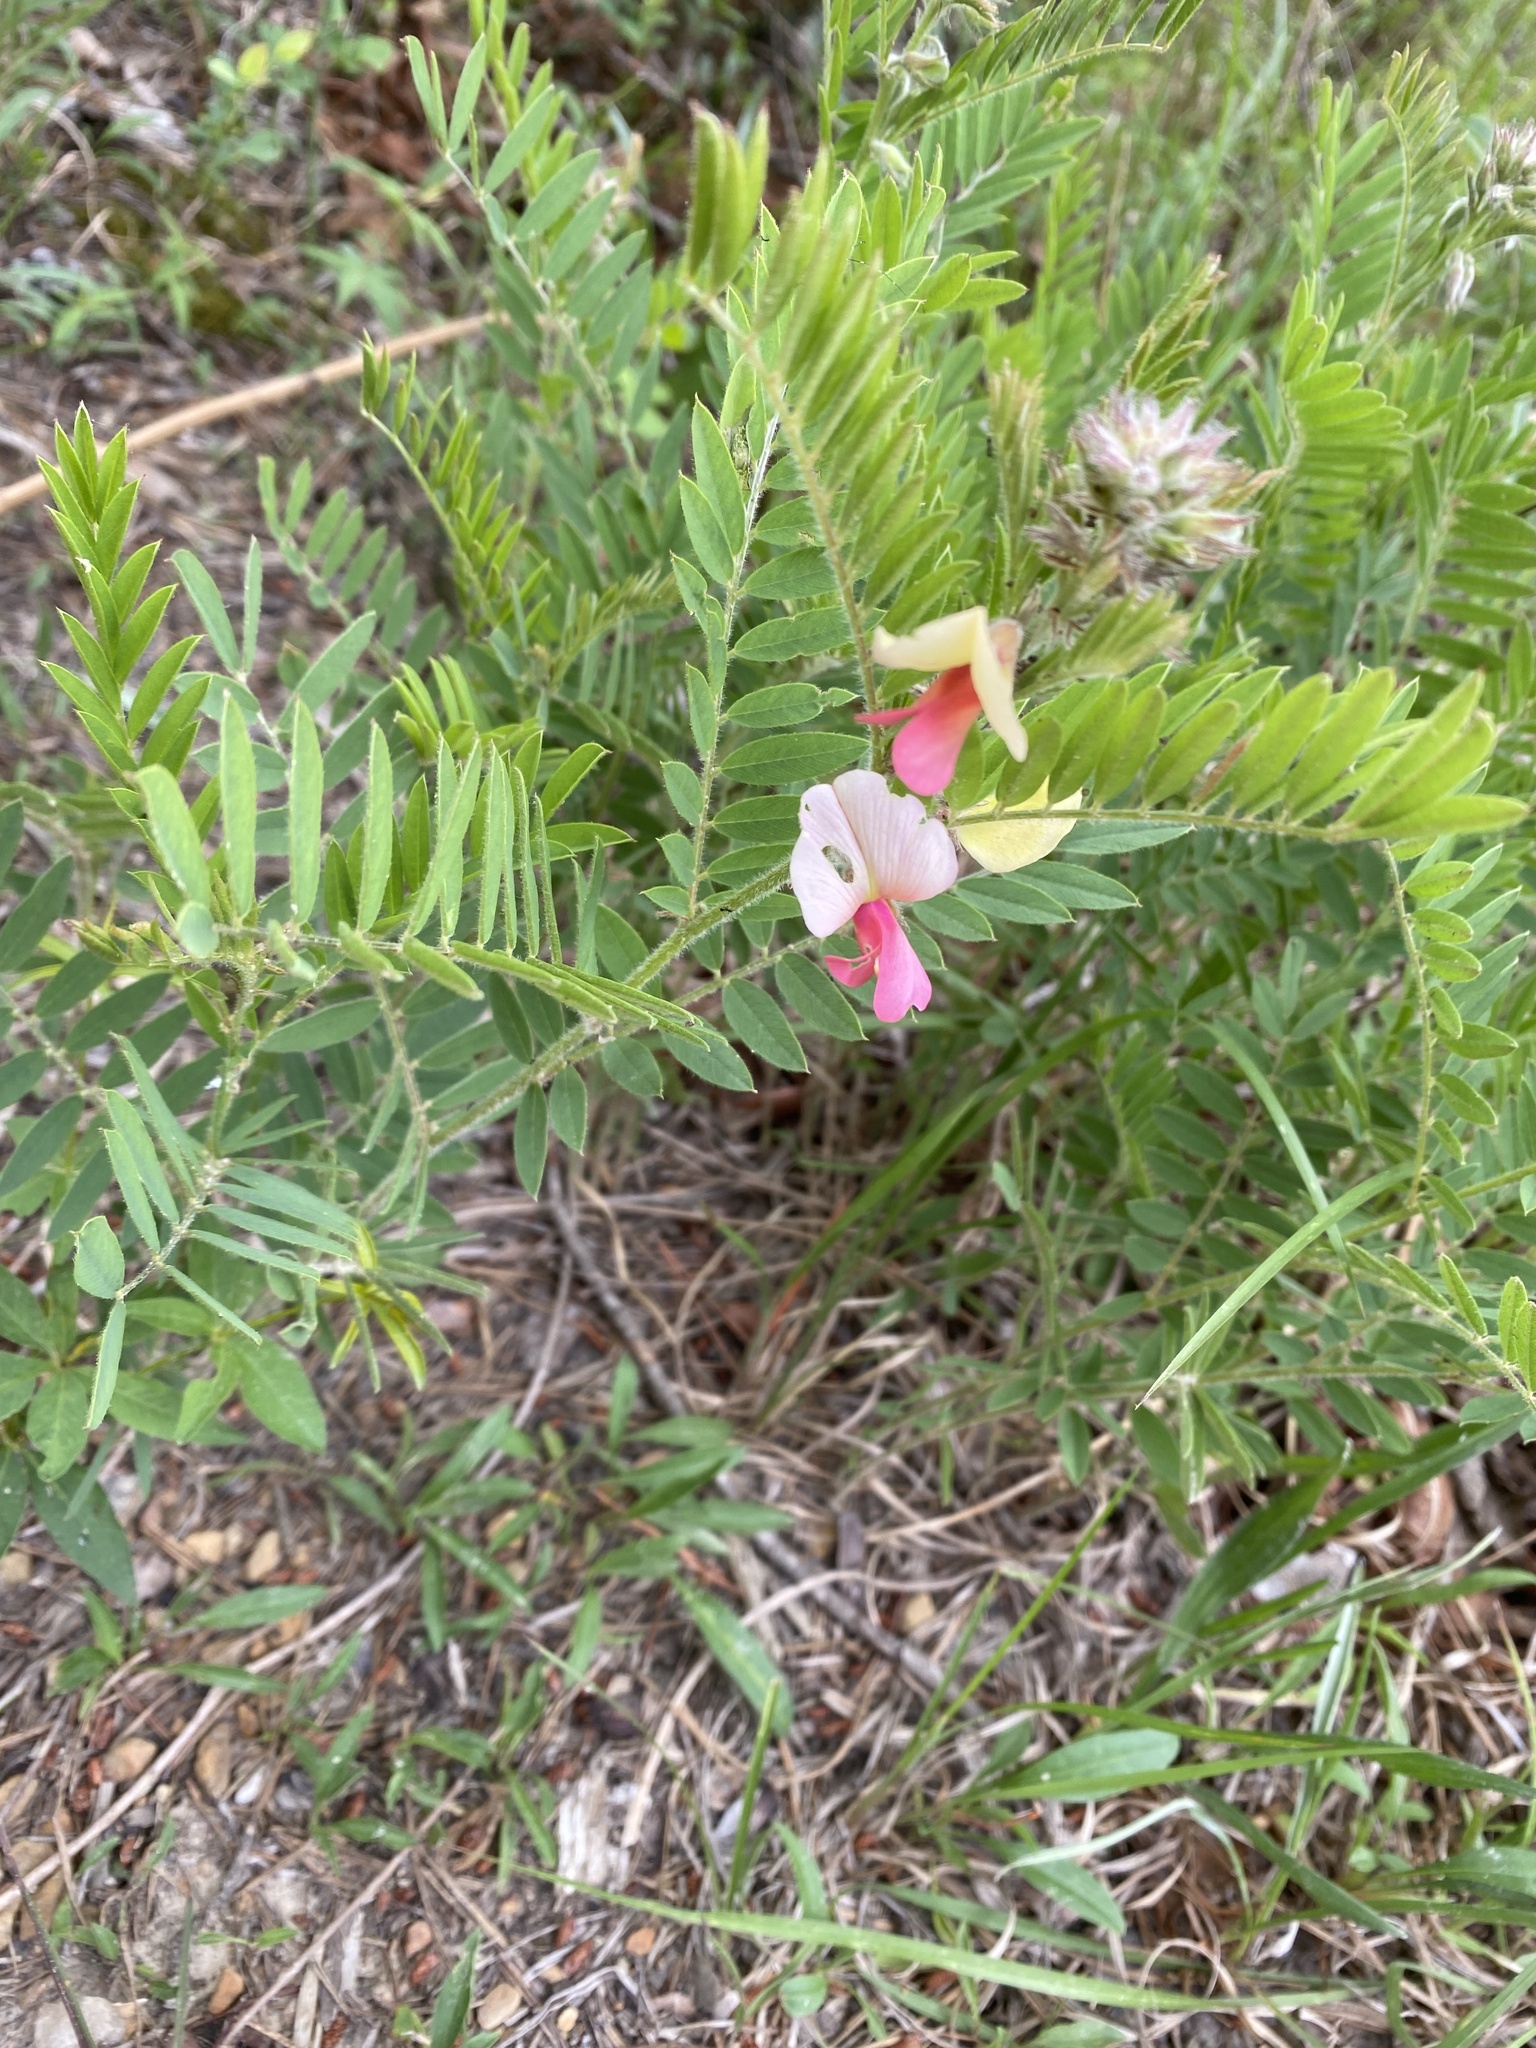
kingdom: Plantae
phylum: Tracheophyta
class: Magnoliopsida
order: Fabales
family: Fabaceae
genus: Tephrosia
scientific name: Tephrosia virginiana
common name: Rabbit-pea
